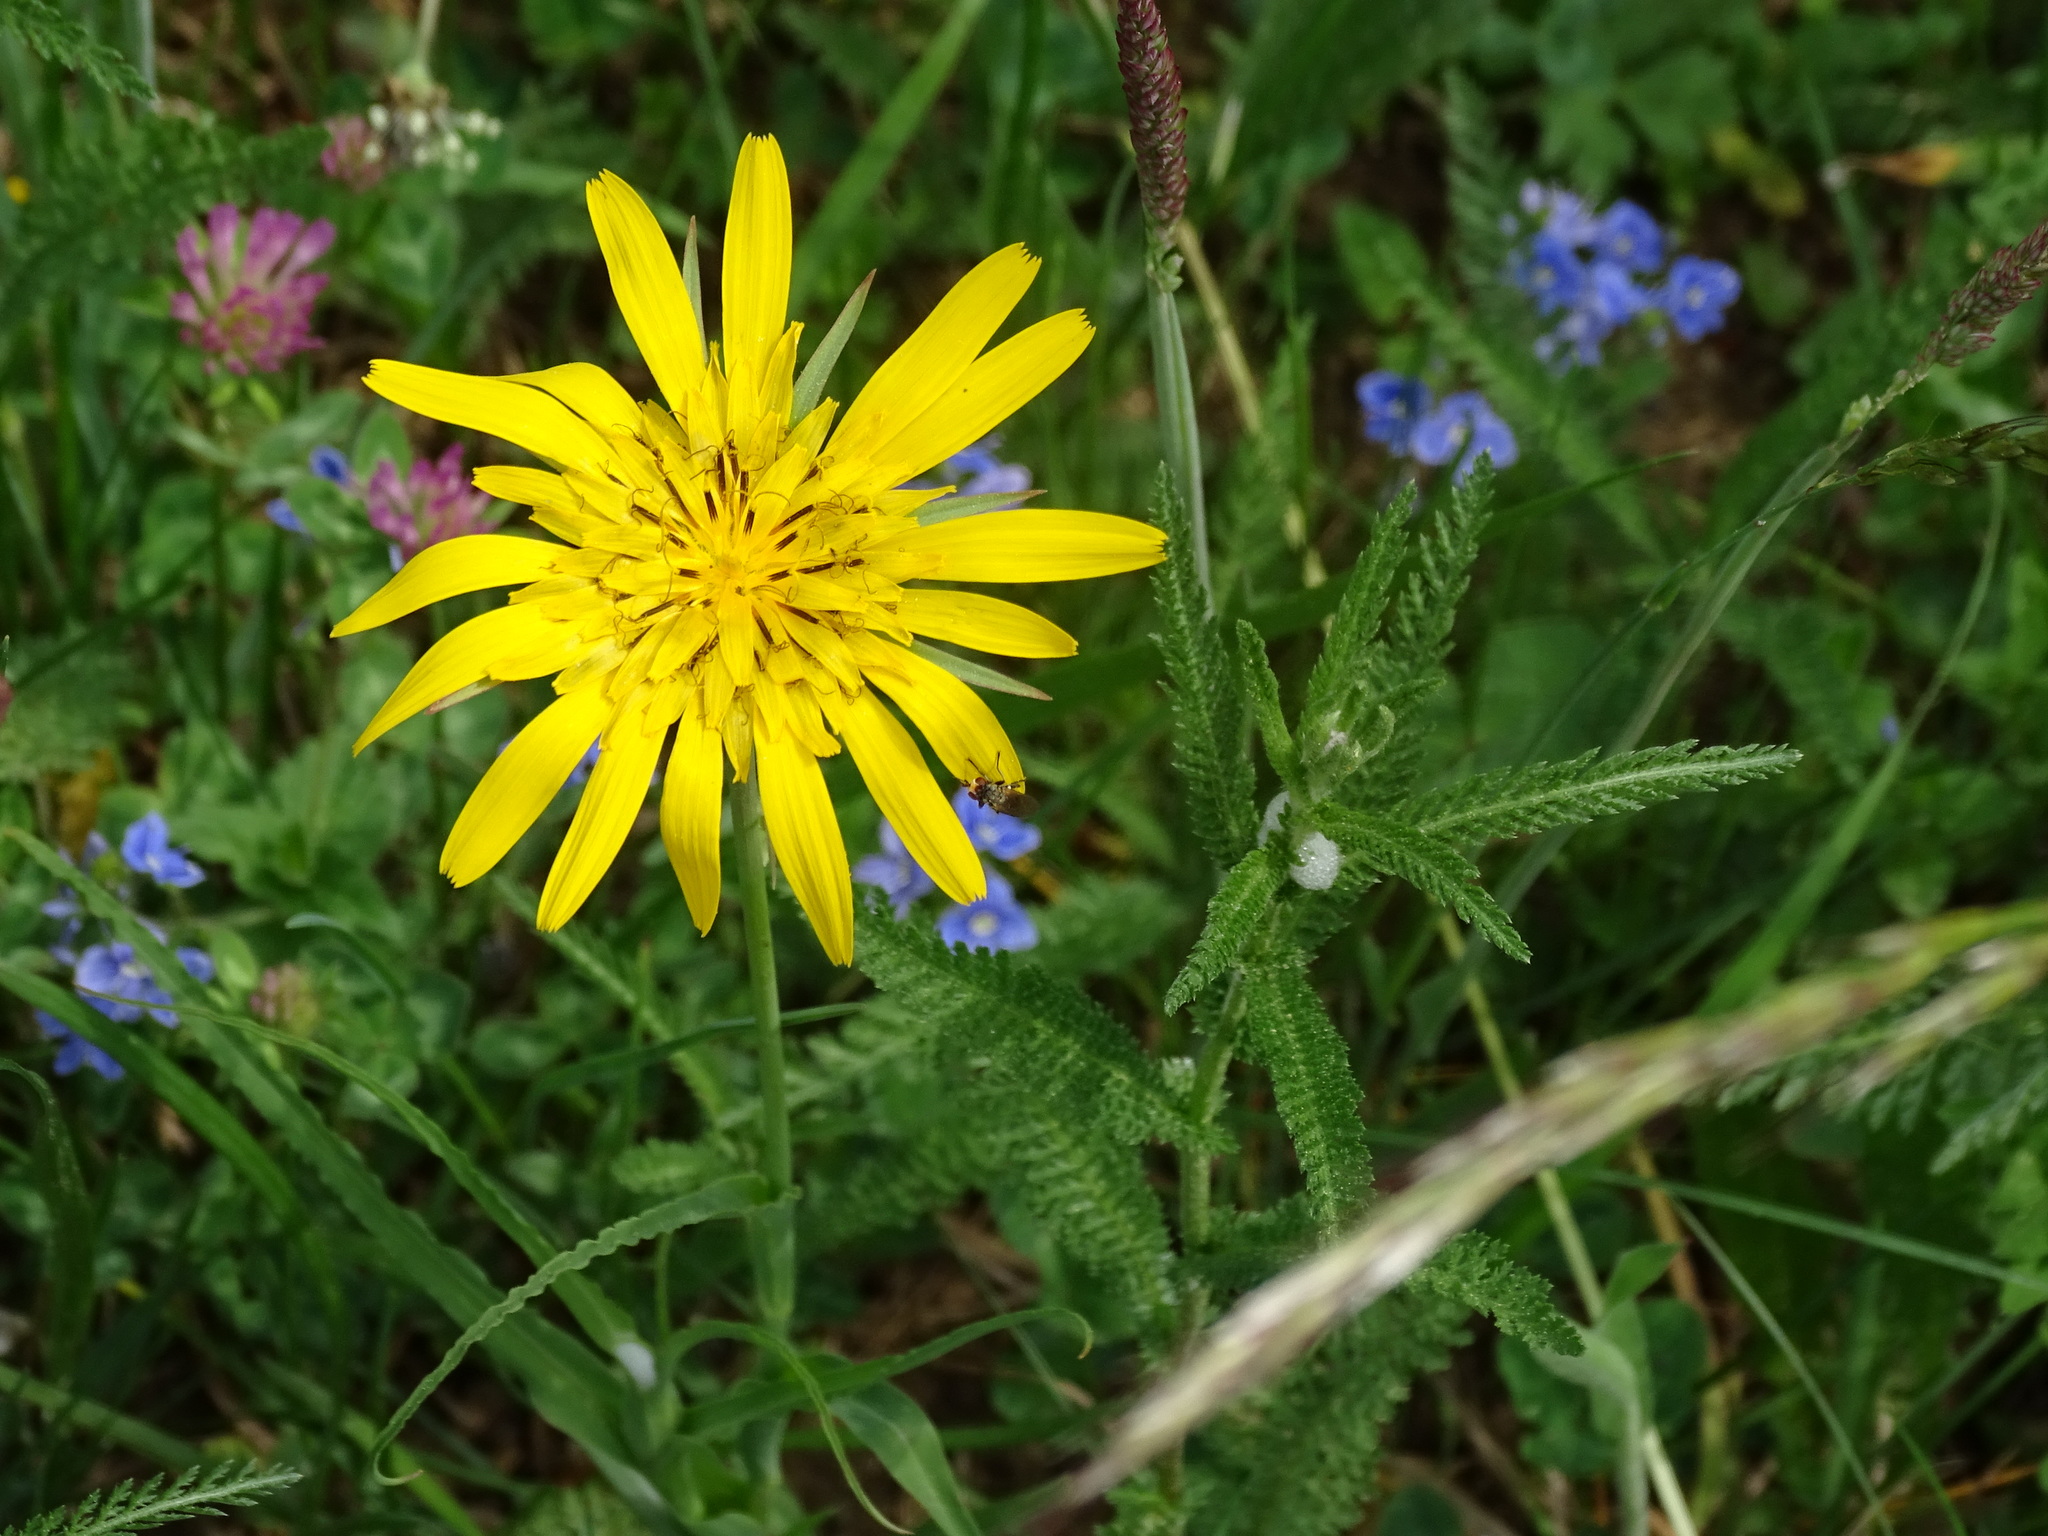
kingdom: Plantae
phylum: Tracheophyta
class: Magnoliopsida
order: Asterales
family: Asteraceae
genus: Tragopogon
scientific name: Tragopogon orientalis
